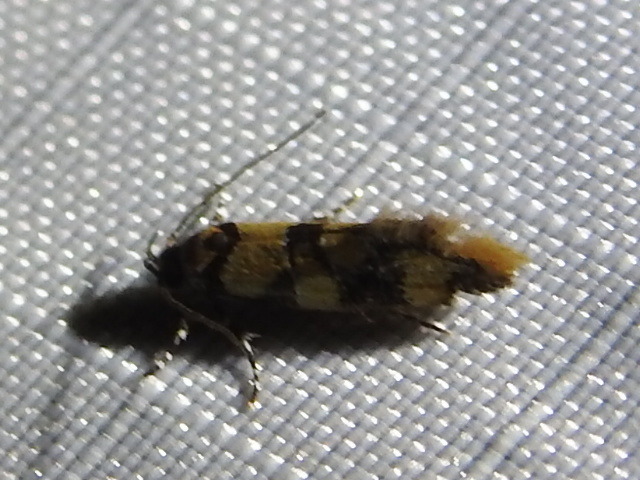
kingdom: Animalia
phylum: Arthropoda
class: Insecta
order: Lepidoptera
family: Oecophoridae
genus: Decantha
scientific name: Decantha borkhausenii
